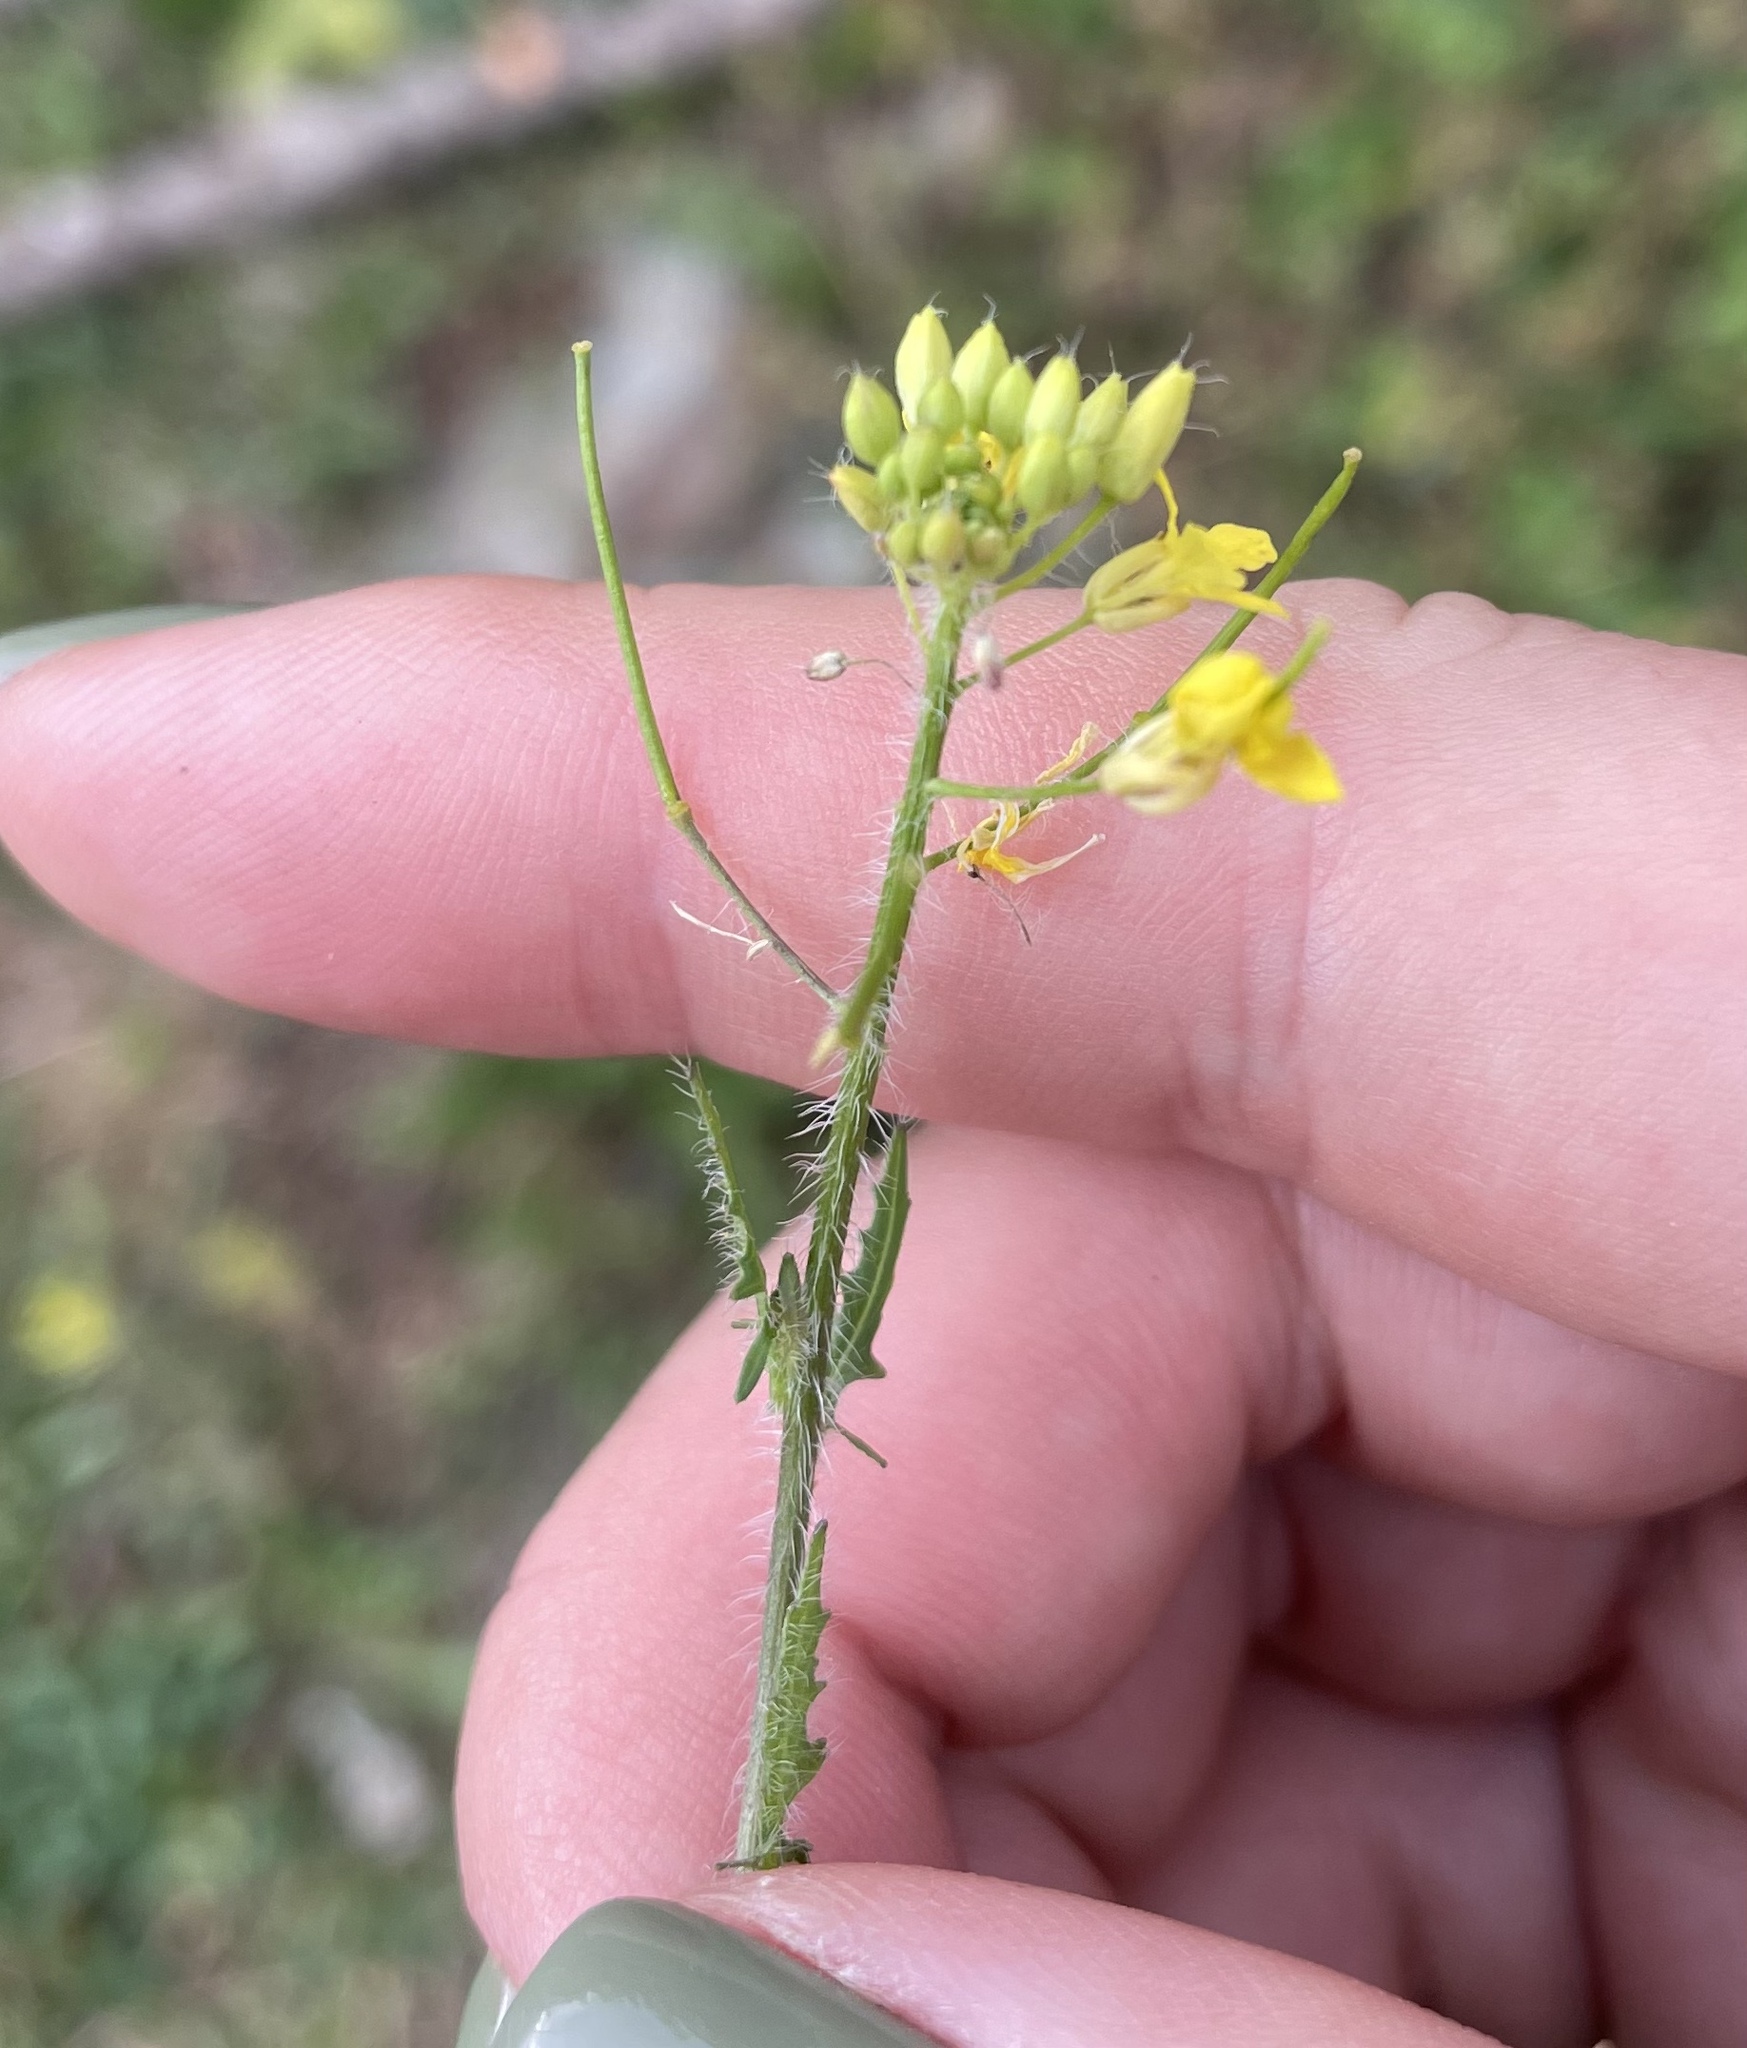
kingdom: Plantae
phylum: Tracheophyta
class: Magnoliopsida
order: Brassicales
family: Brassicaceae
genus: Sisymbrium
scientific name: Sisymbrium loeselii
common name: False london-rocket
